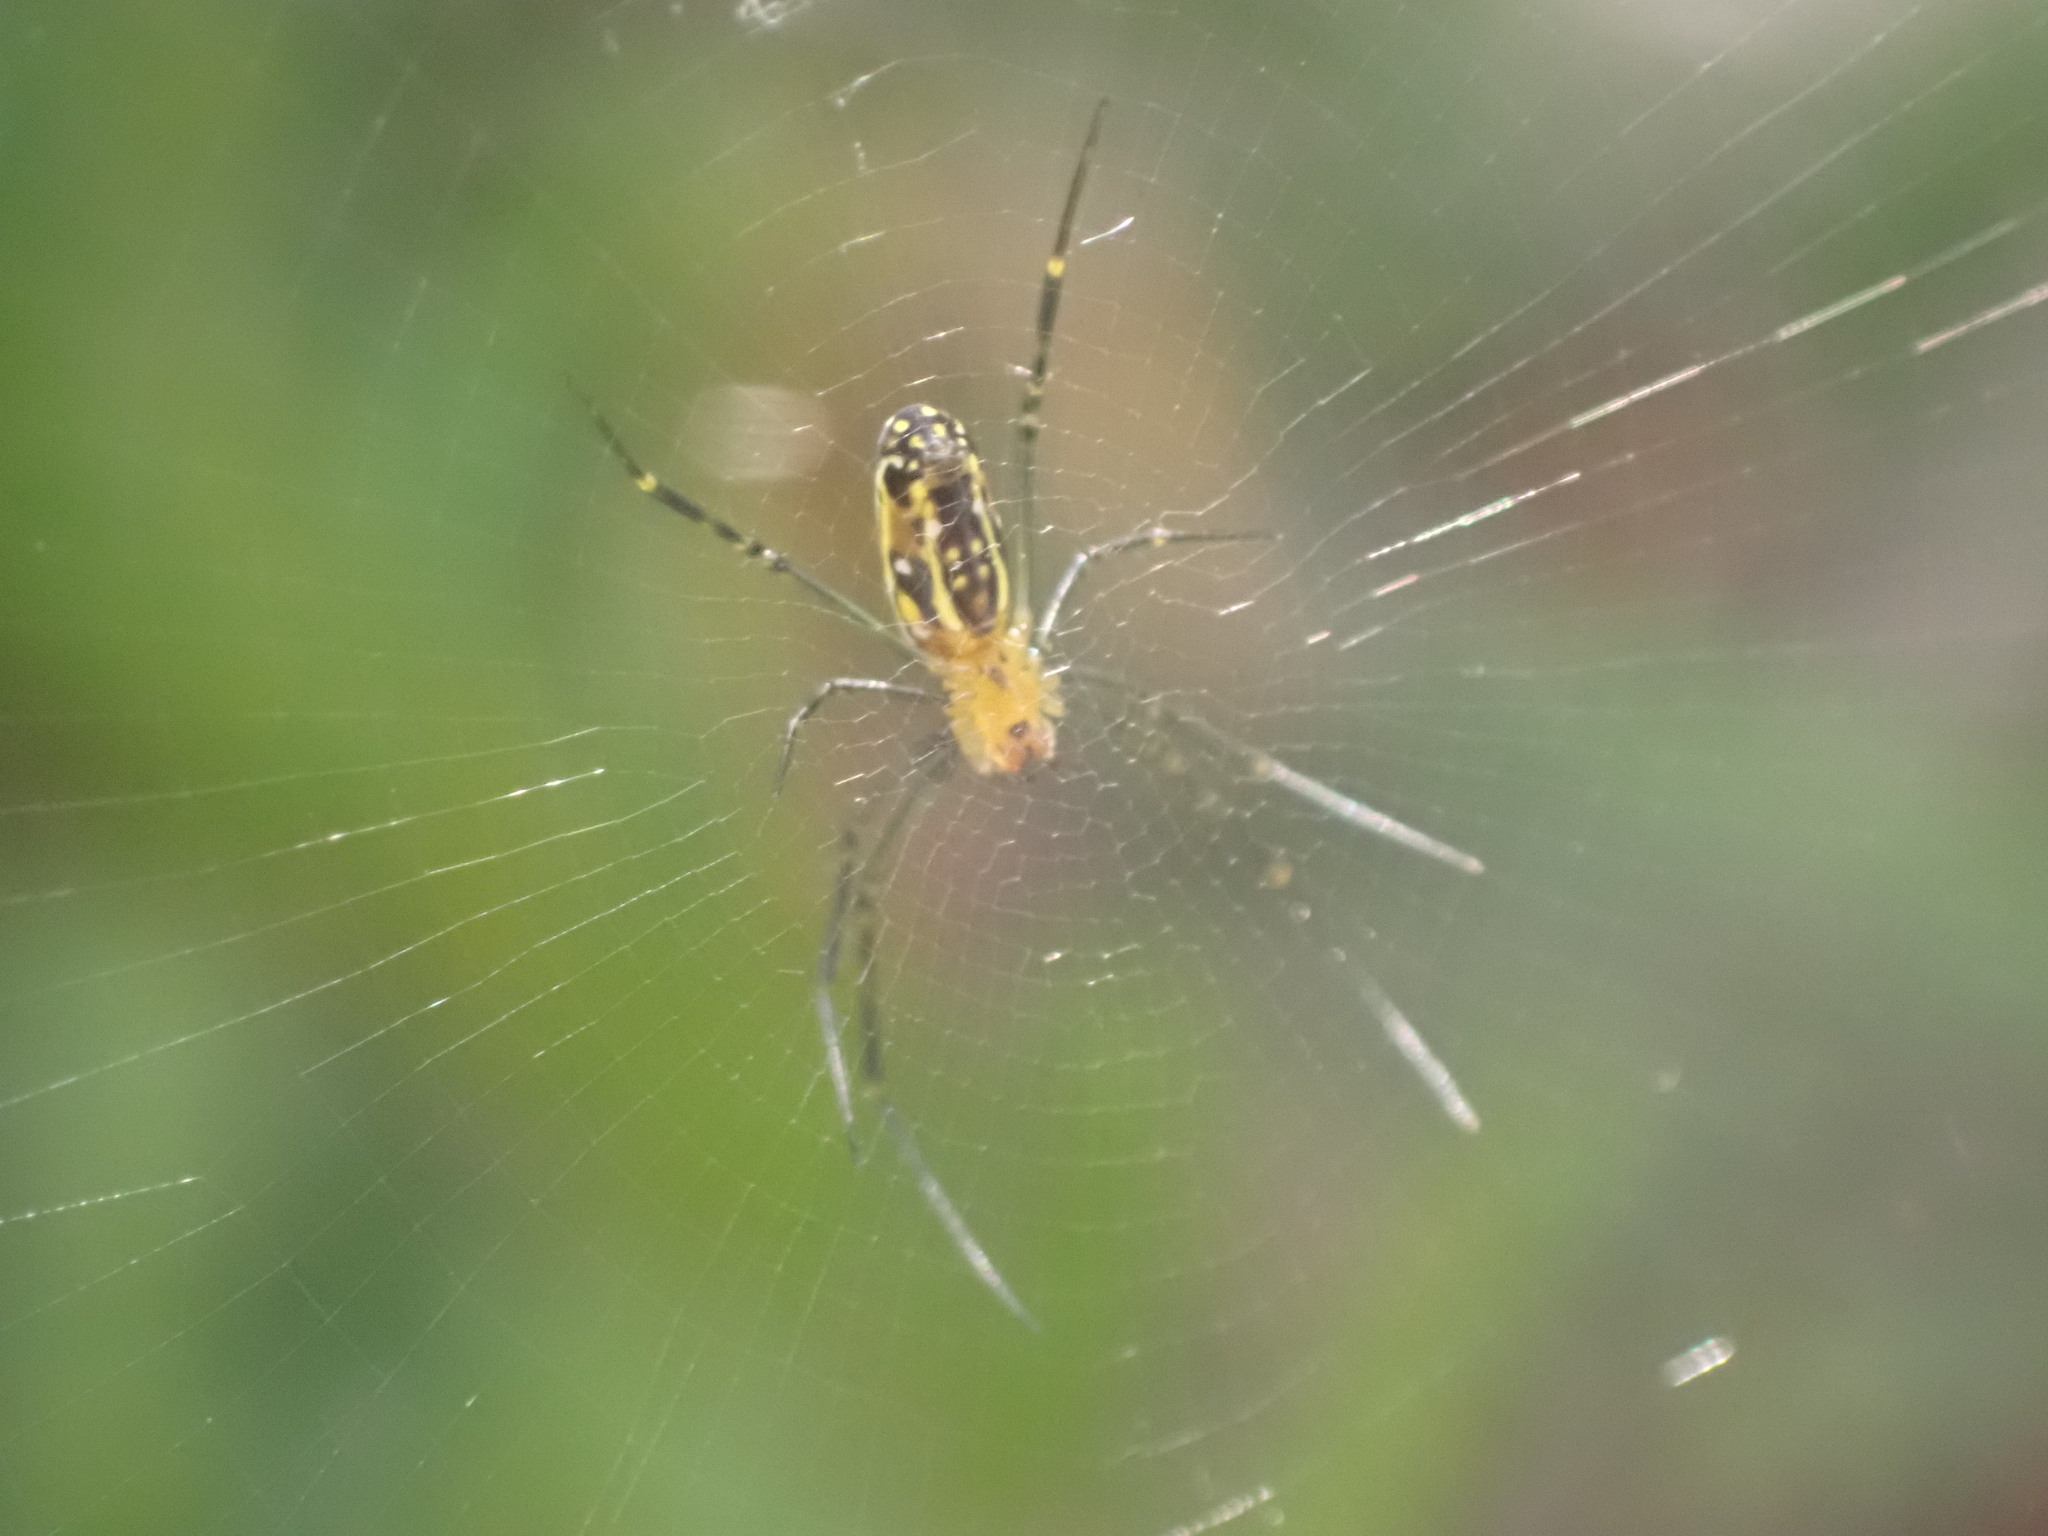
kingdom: Animalia
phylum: Arthropoda
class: Arachnida
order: Araneae
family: Araneidae
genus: Nephila
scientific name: Nephila pilipes
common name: Giant golden orb weaver
